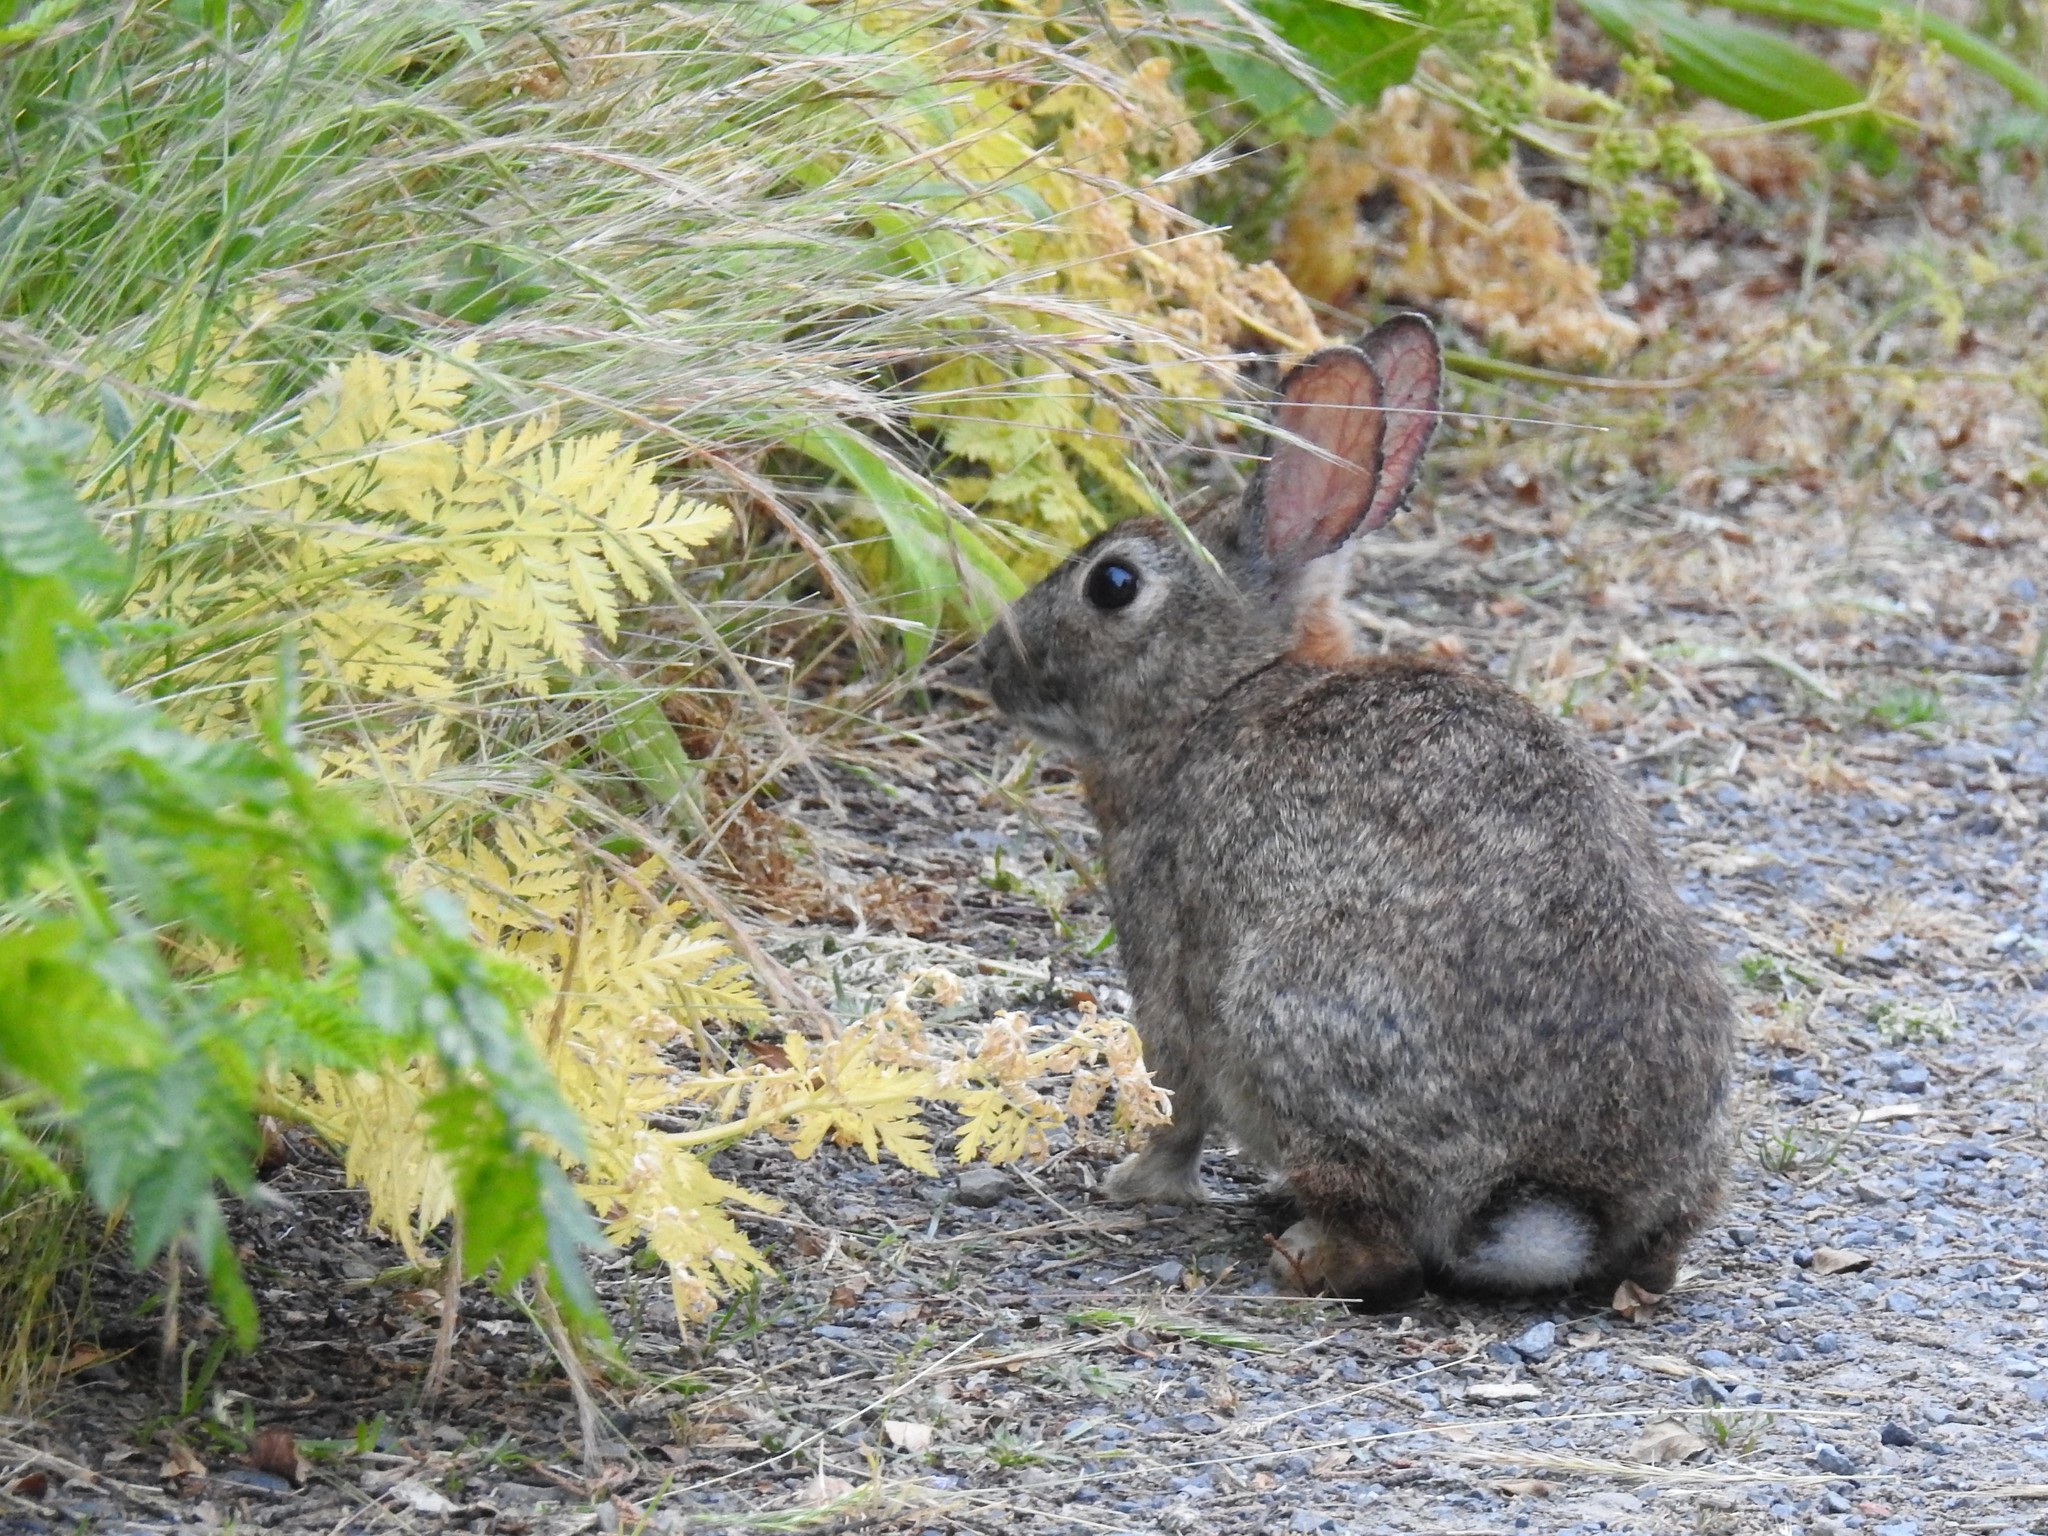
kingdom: Animalia
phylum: Chordata
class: Mammalia
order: Lagomorpha
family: Leporidae
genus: Sylvilagus
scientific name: Sylvilagus bachmani
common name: Brush rabbit
